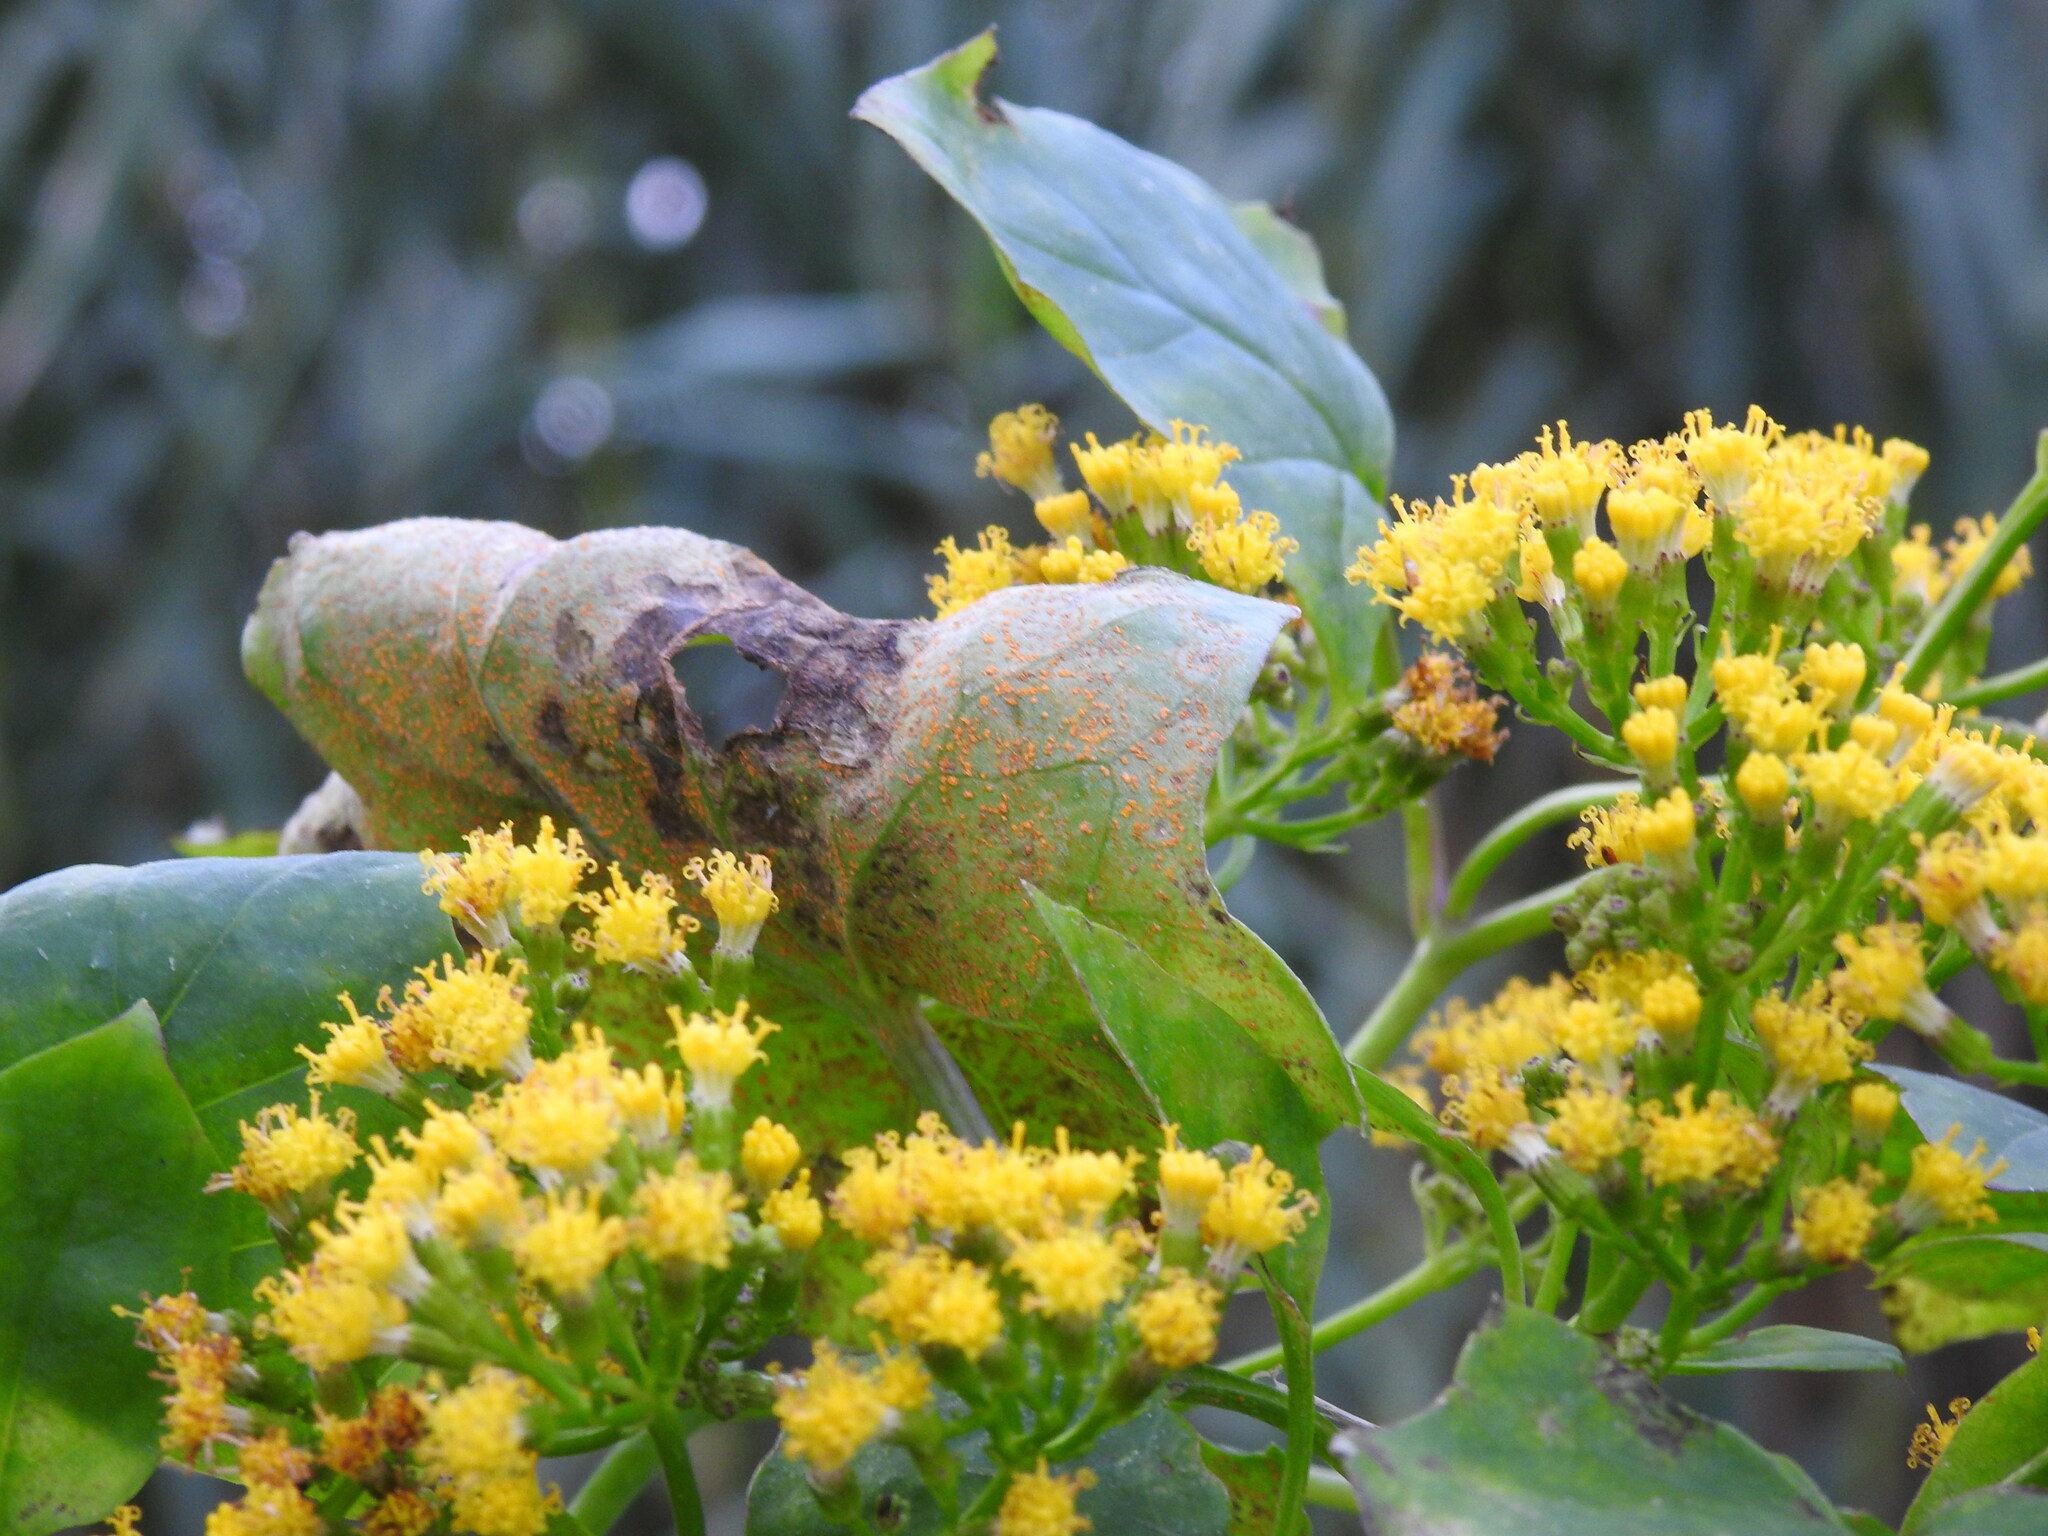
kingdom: Fungi
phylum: Basidiomycota
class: Pucciniomycetes
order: Pucciniales
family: Coleosporiaceae
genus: Coleosporium
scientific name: Coleosporium senecionis
